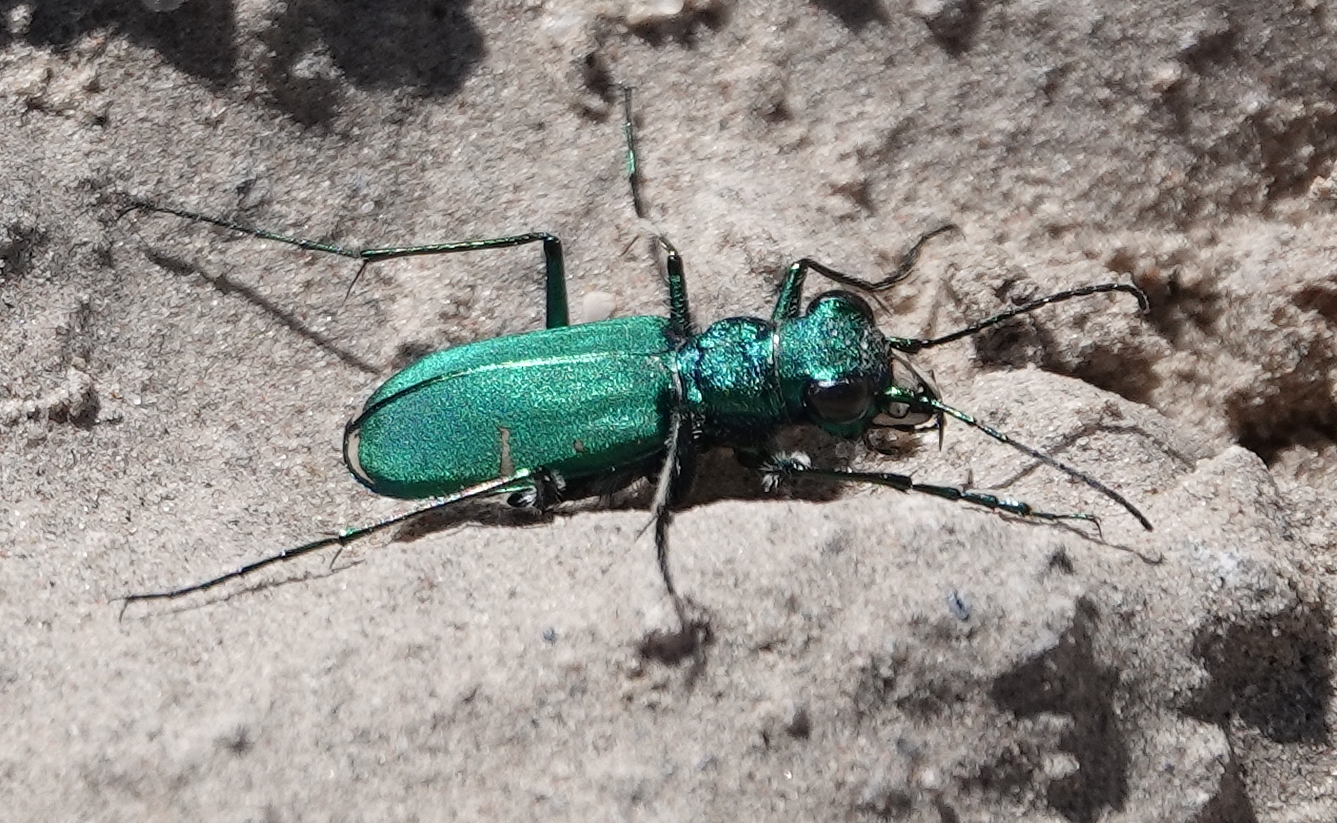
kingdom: Animalia
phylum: Arthropoda
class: Insecta
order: Coleoptera
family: Carabidae
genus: Cicindela
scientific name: Cicindela denverensis
